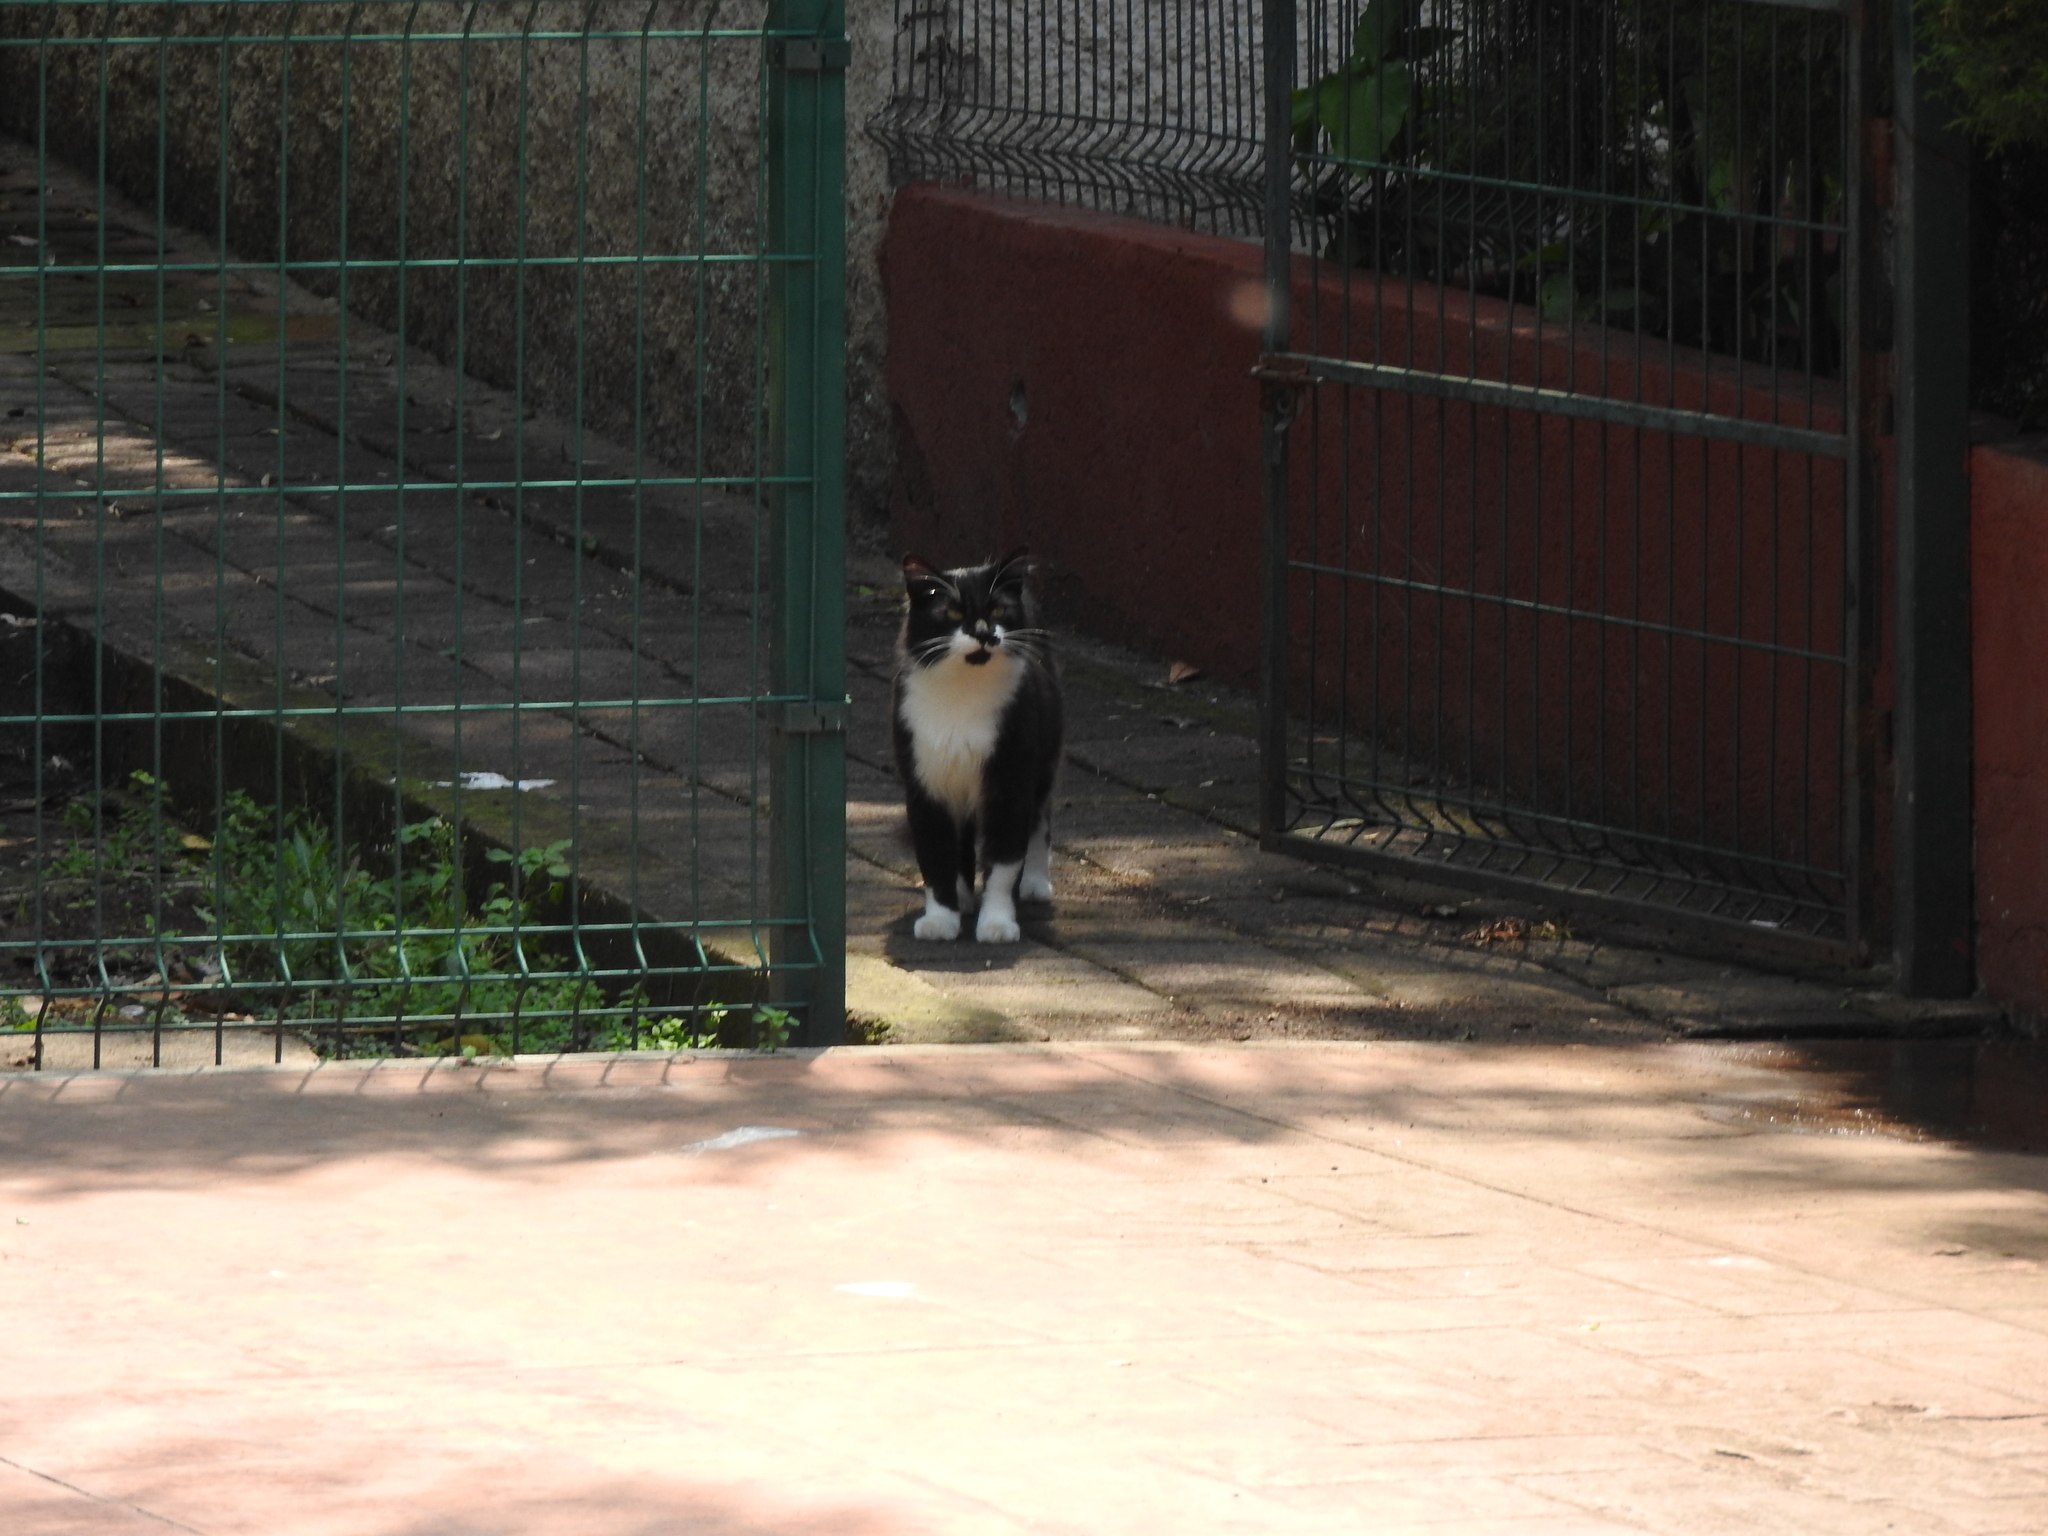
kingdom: Animalia
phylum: Chordata
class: Mammalia
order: Carnivora
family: Felidae
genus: Felis
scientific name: Felis catus
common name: Domestic cat
